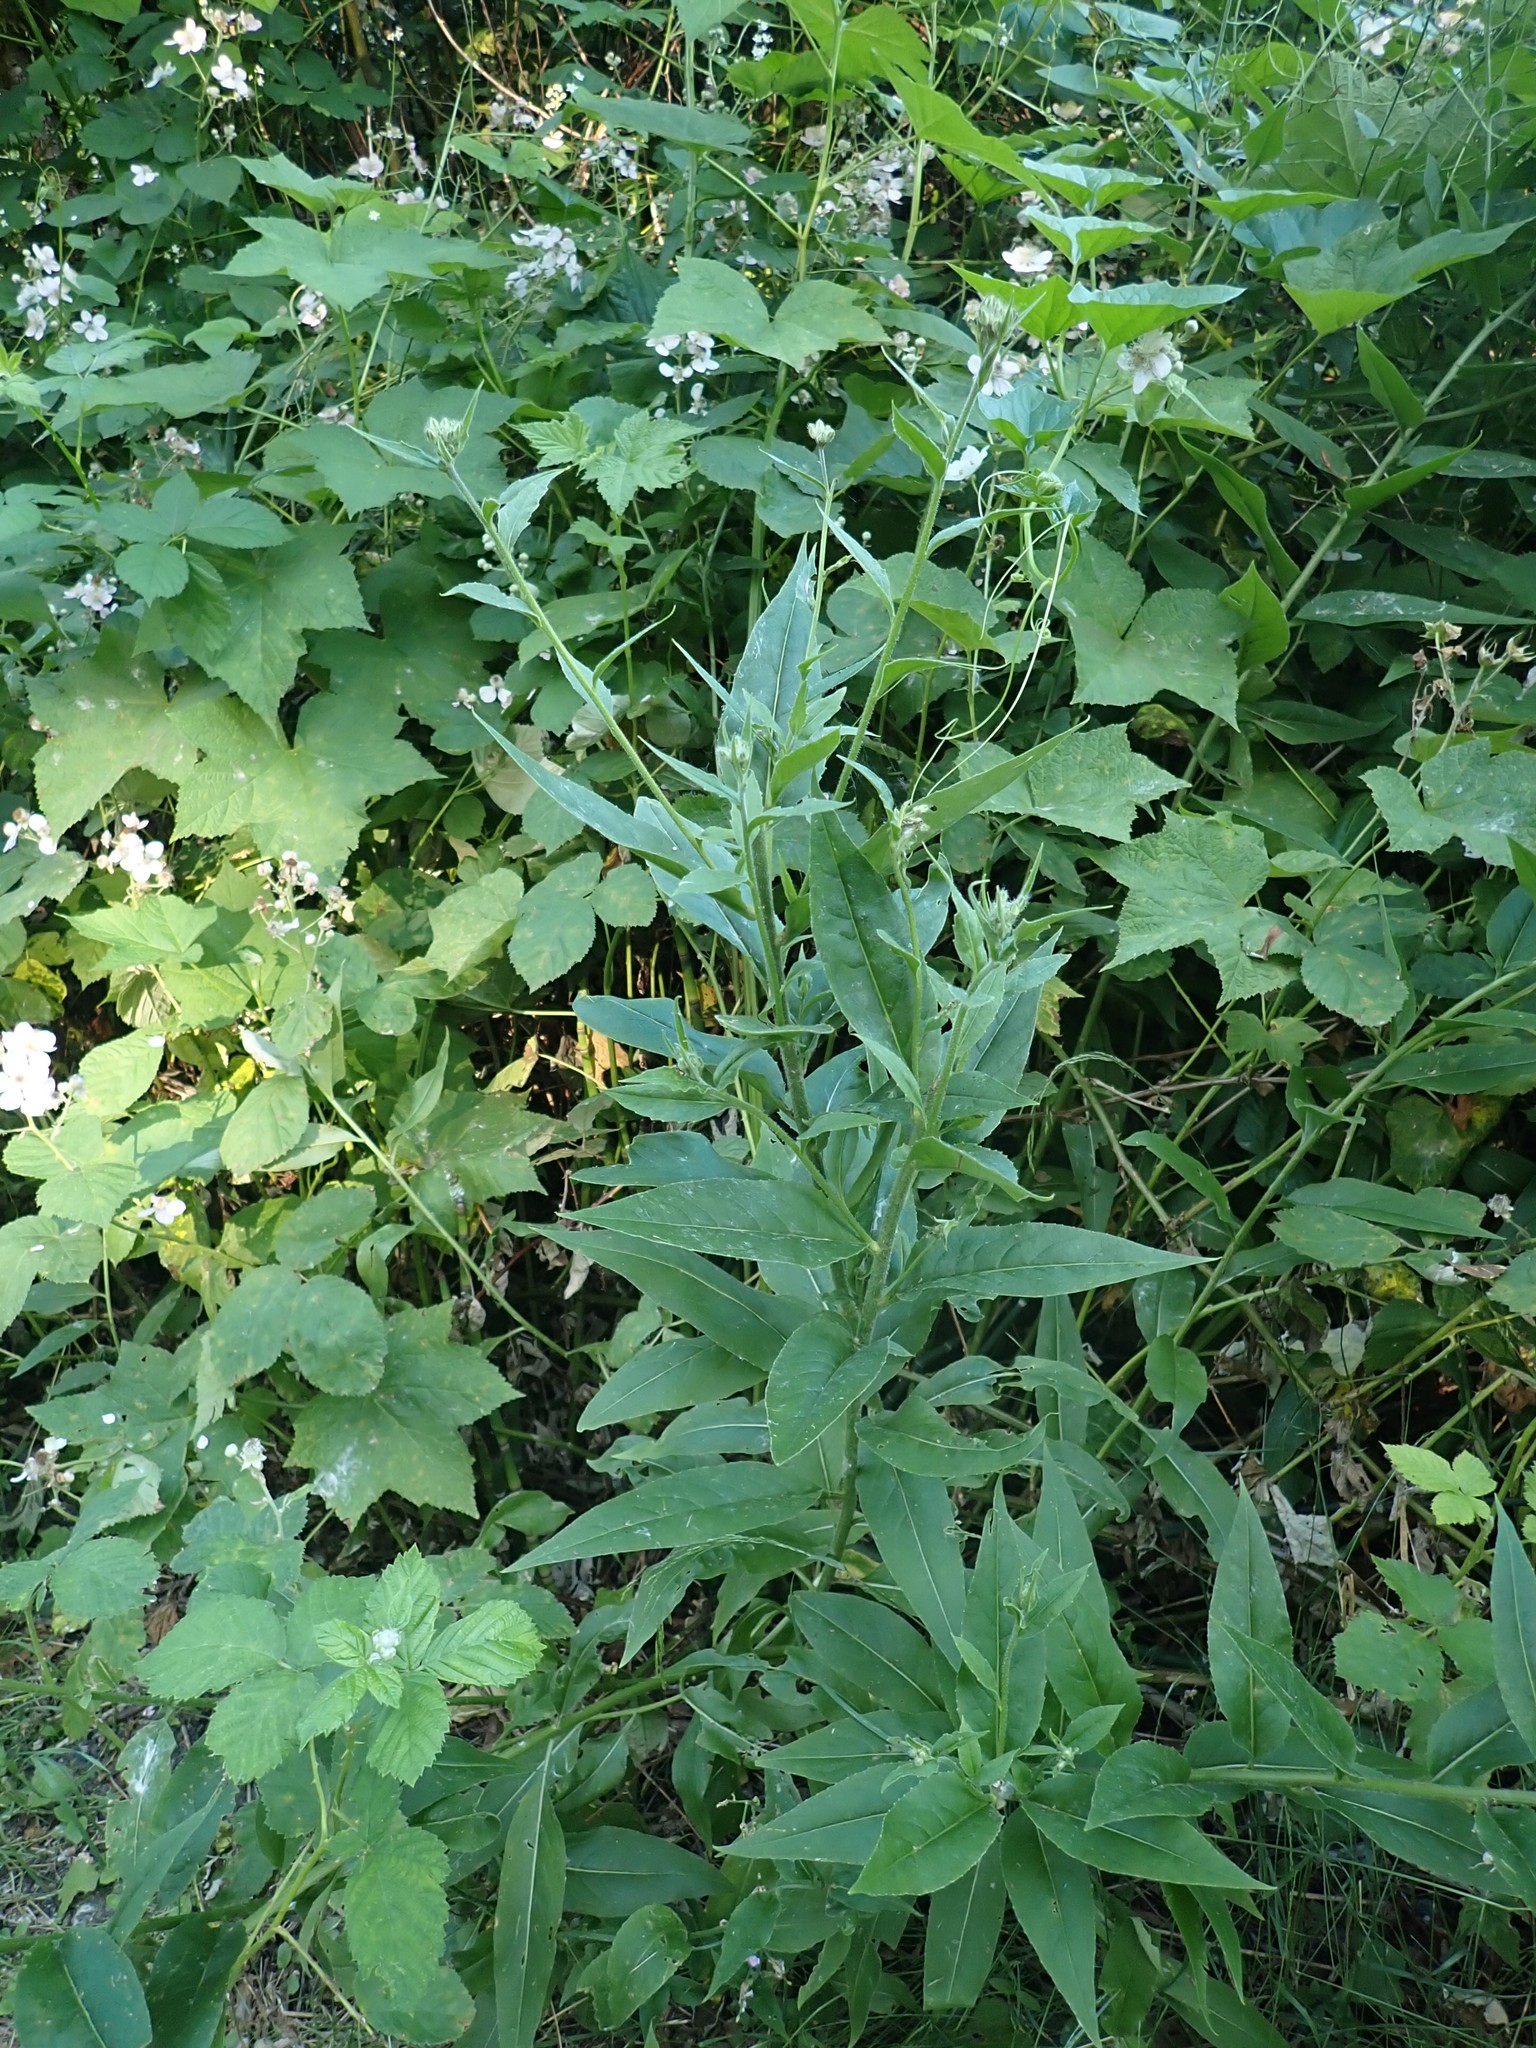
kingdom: Plantae
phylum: Tracheophyta
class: Magnoliopsida
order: Brassicales
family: Brassicaceae
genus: Hesperis
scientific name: Hesperis matronalis
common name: Dame's-violet
